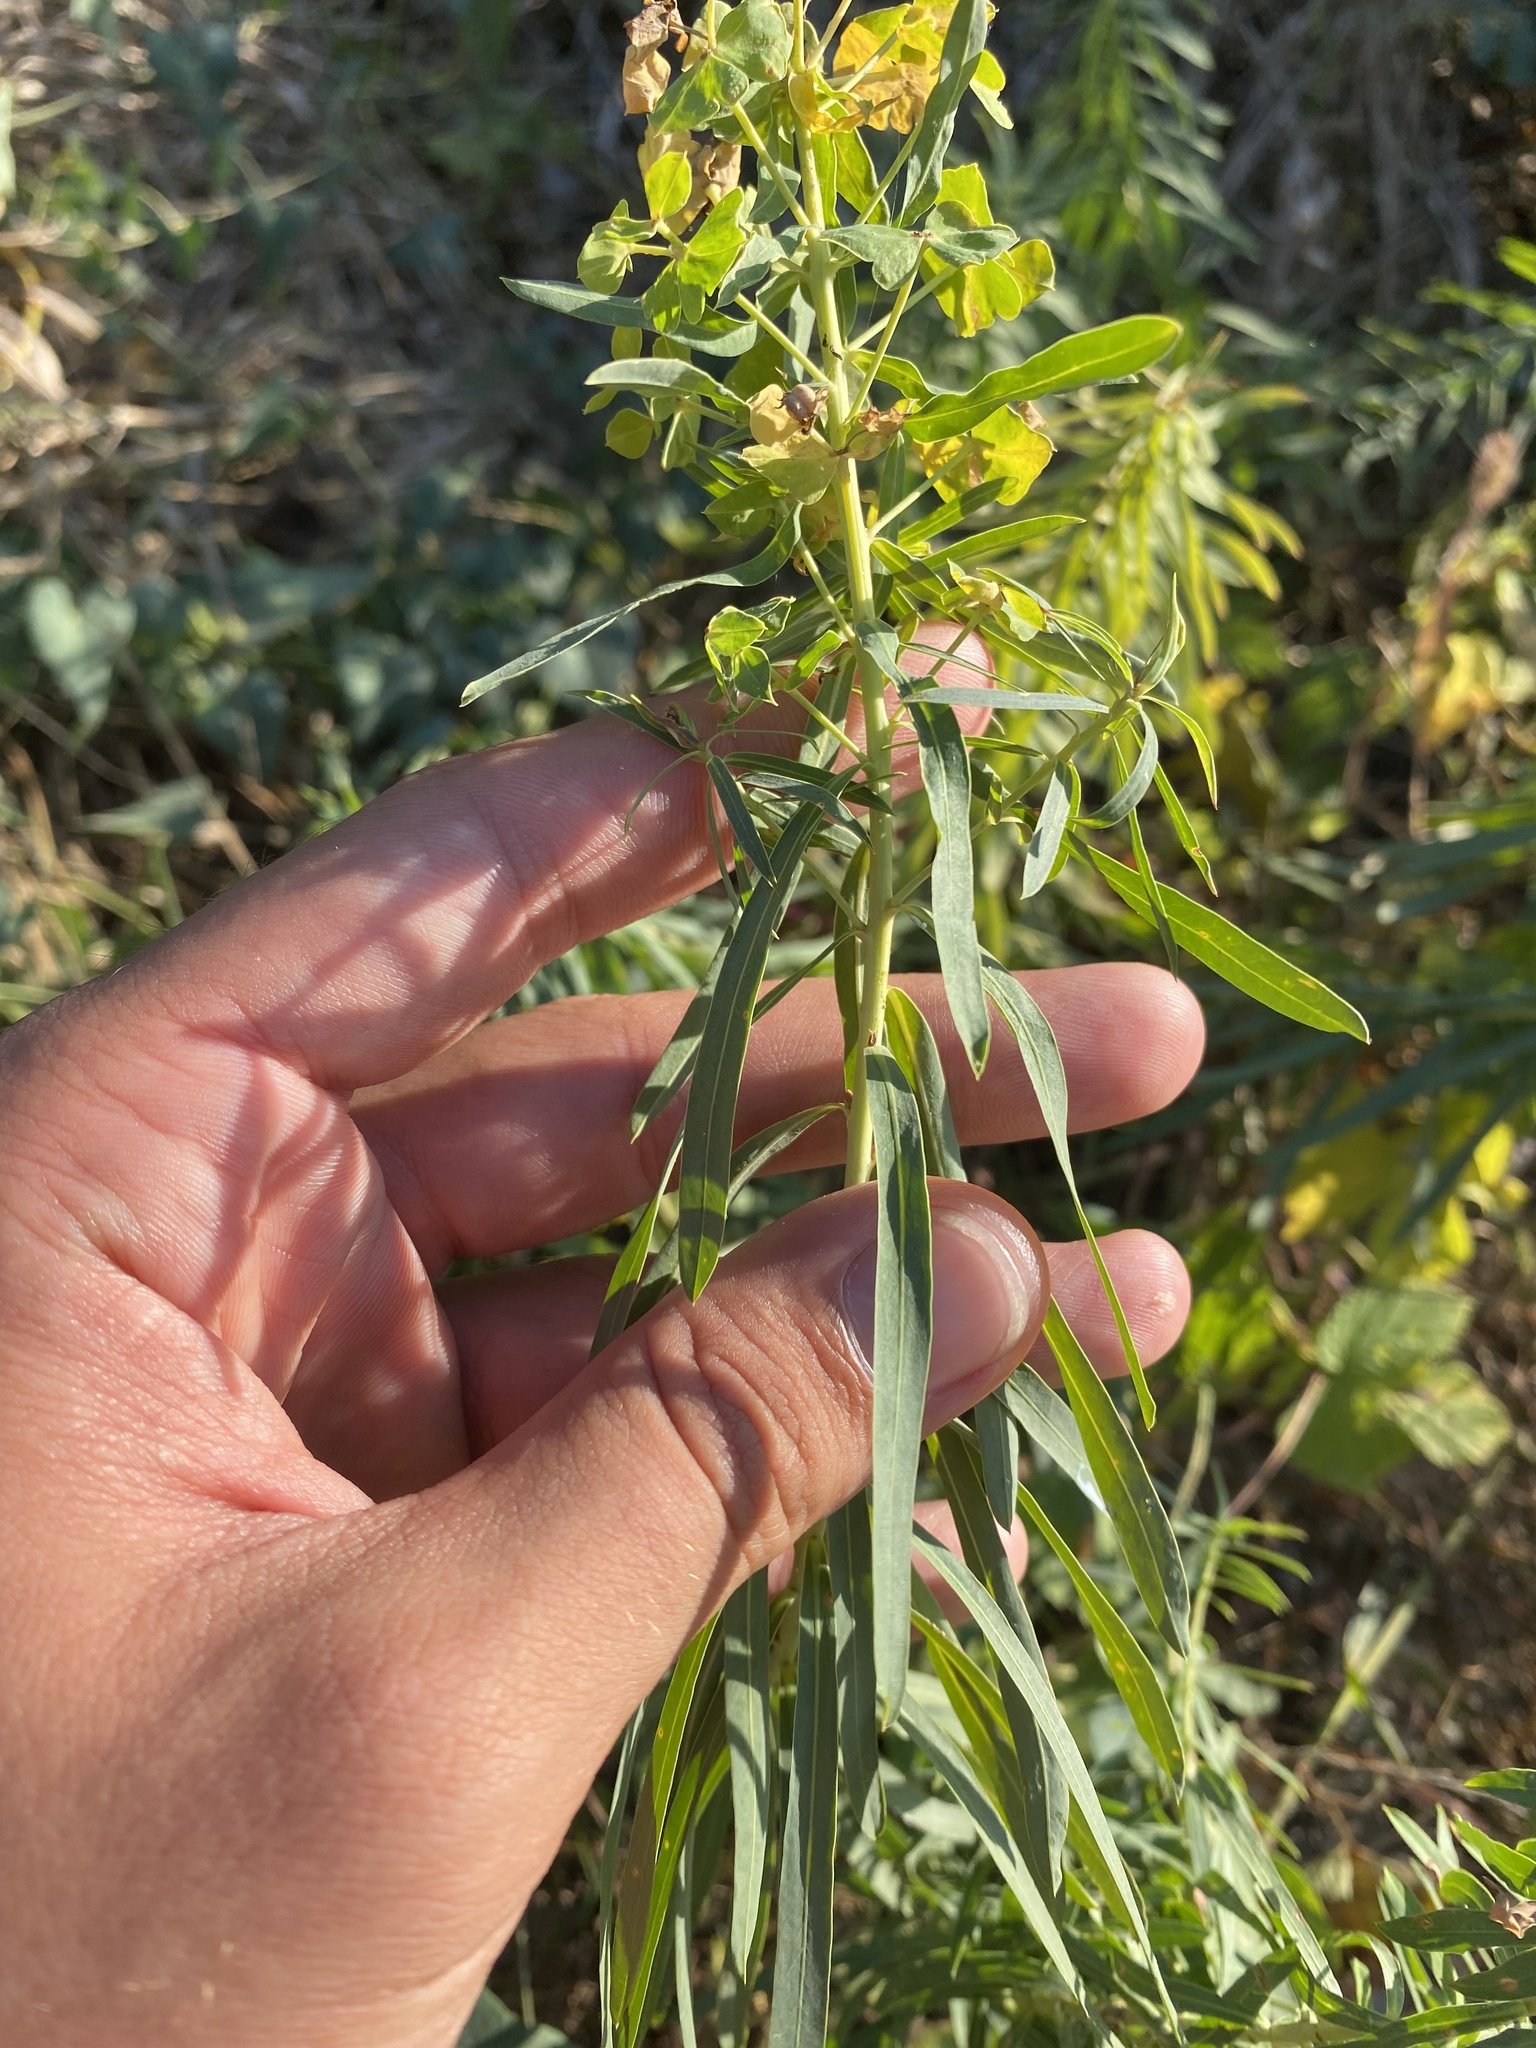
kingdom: Plantae
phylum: Tracheophyta
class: Magnoliopsida
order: Malpighiales
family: Euphorbiaceae
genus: Euphorbia
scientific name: Euphorbia virgata
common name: Leafy spurge
